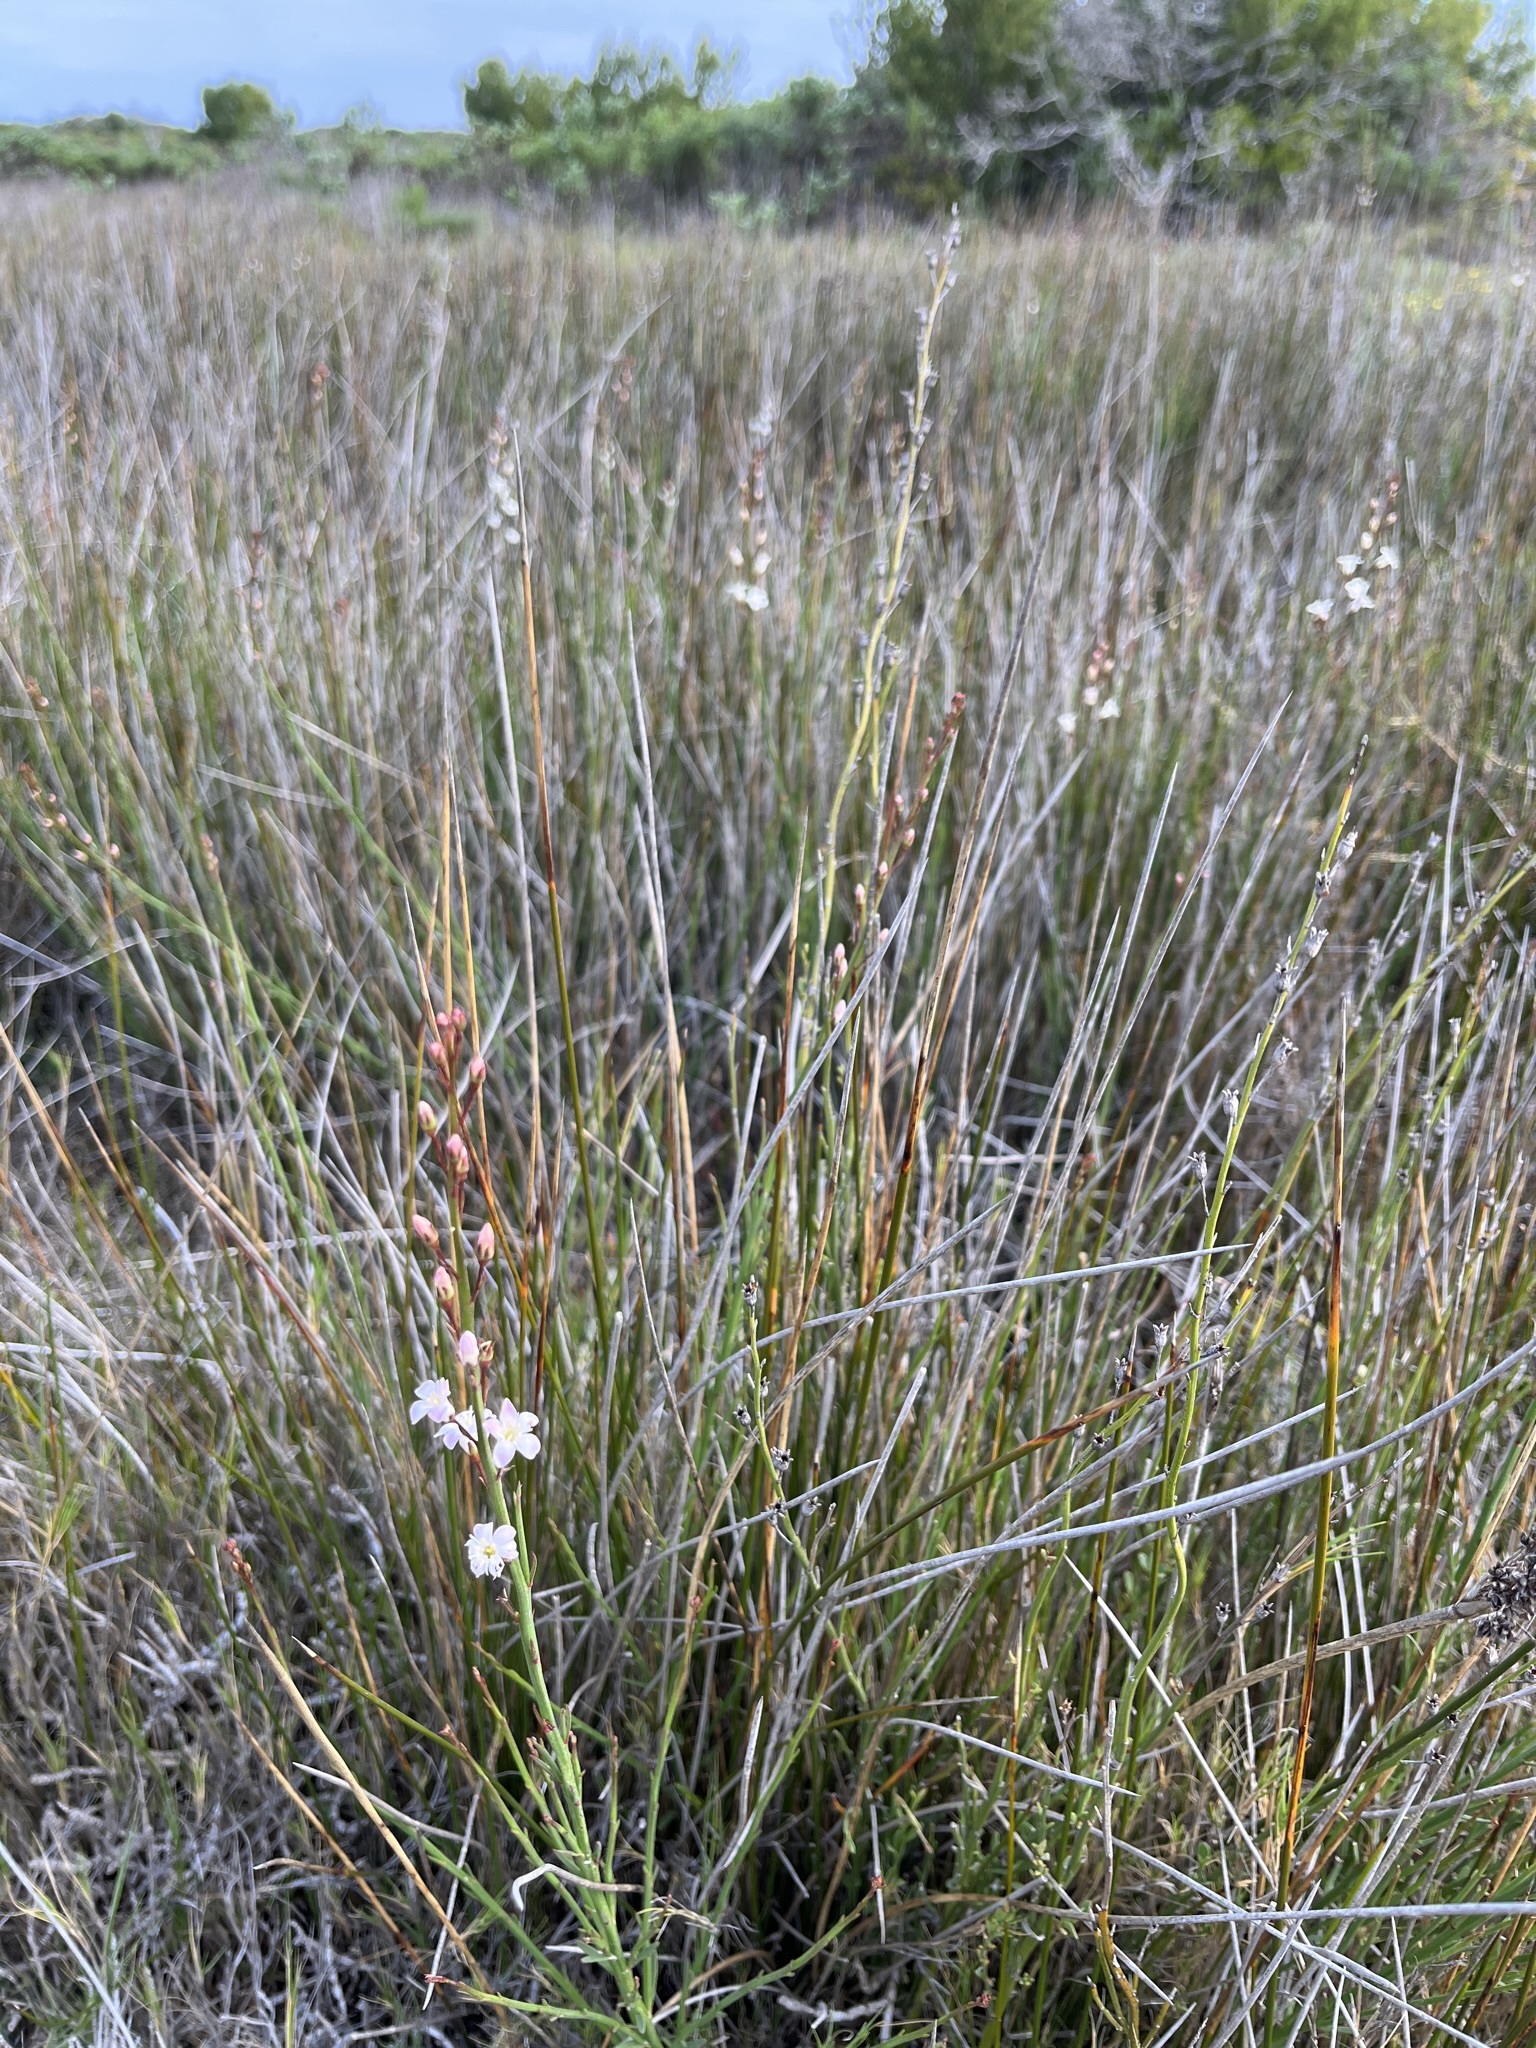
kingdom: Plantae
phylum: Tracheophyta
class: Magnoliopsida
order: Ericales
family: Primulaceae
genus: Samolus
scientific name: Samolus porosus
